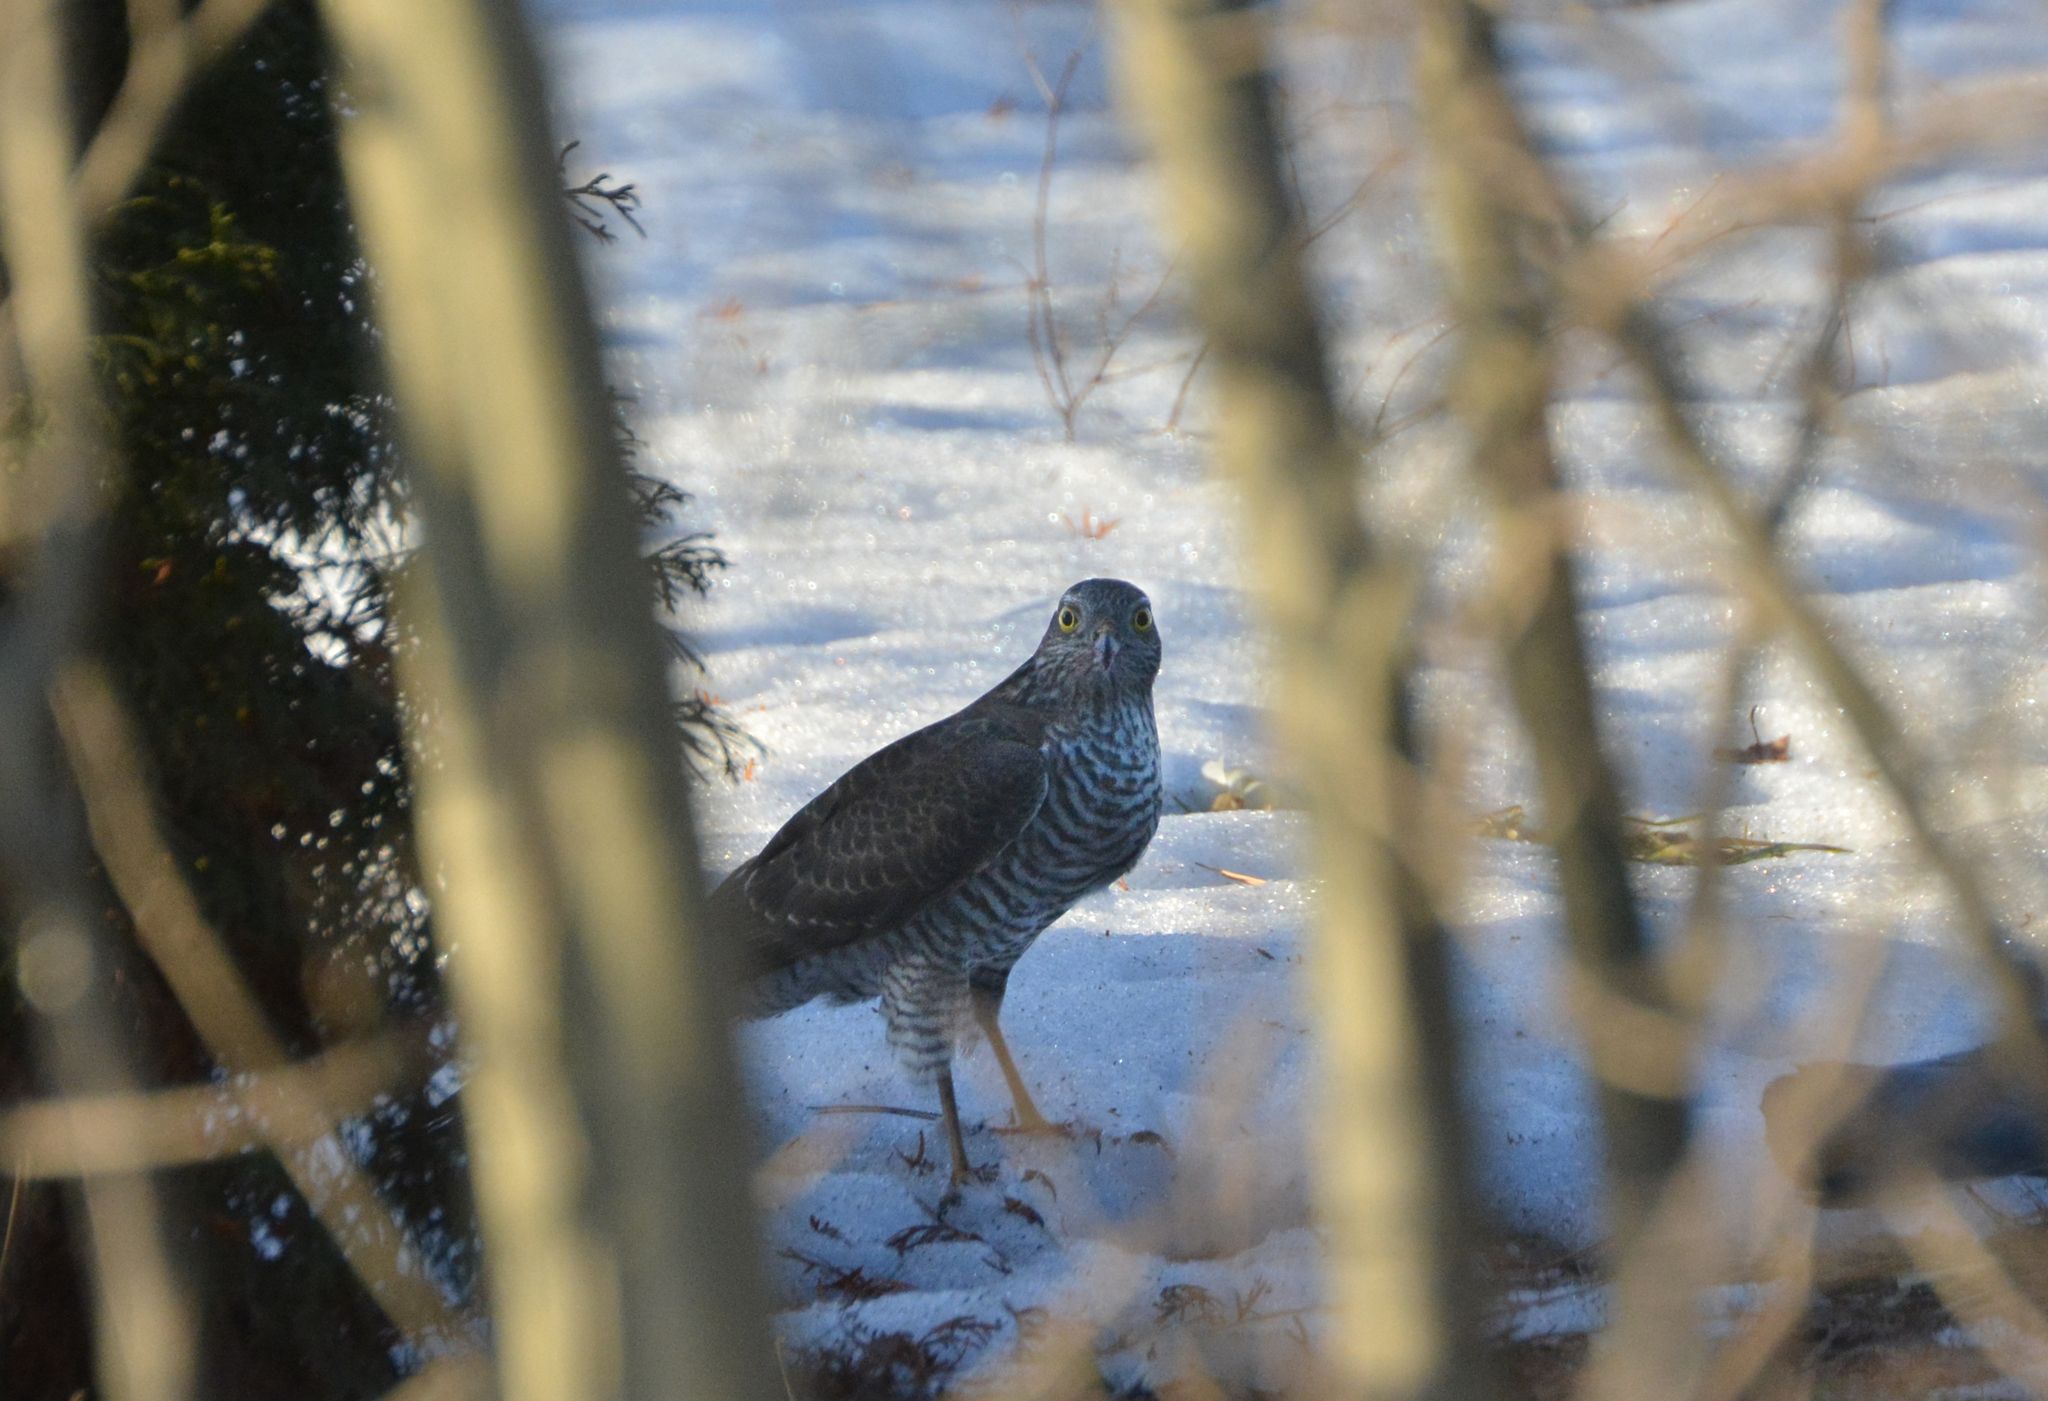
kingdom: Animalia
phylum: Chordata
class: Aves
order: Accipitriformes
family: Accipitridae
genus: Accipiter
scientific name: Accipiter nisus
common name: Eurasian sparrowhawk
